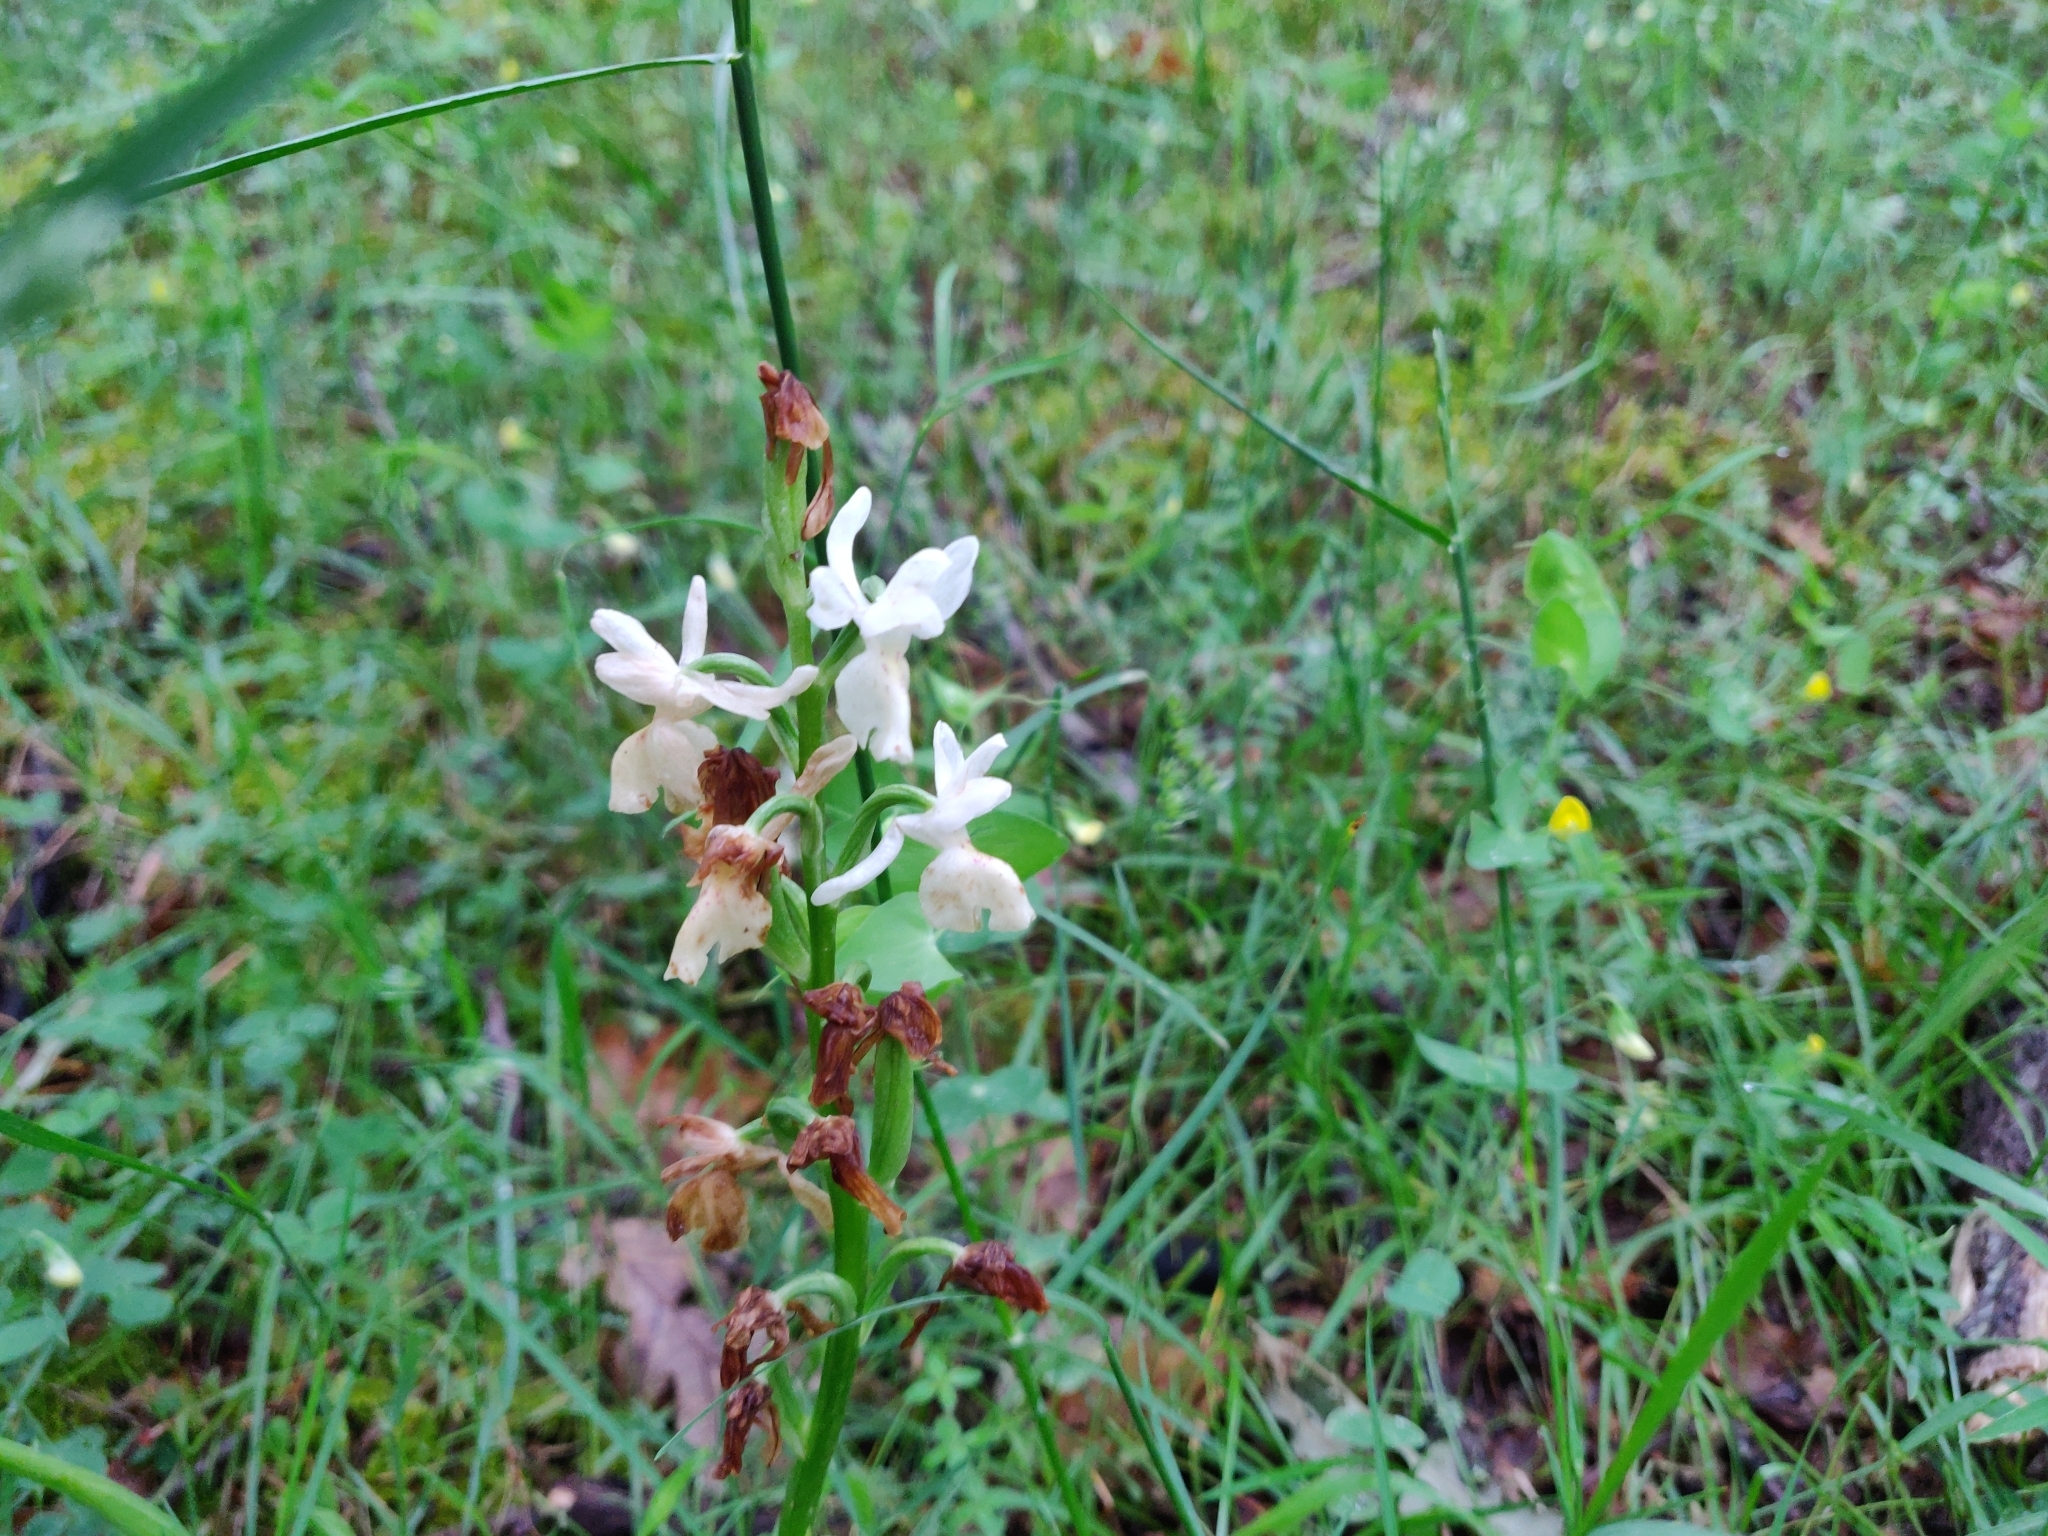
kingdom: Plantae
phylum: Tracheophyta
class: Liliopsida
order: Asparagales
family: Orchidaceae
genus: Orchis
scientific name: Orchis provincialis
